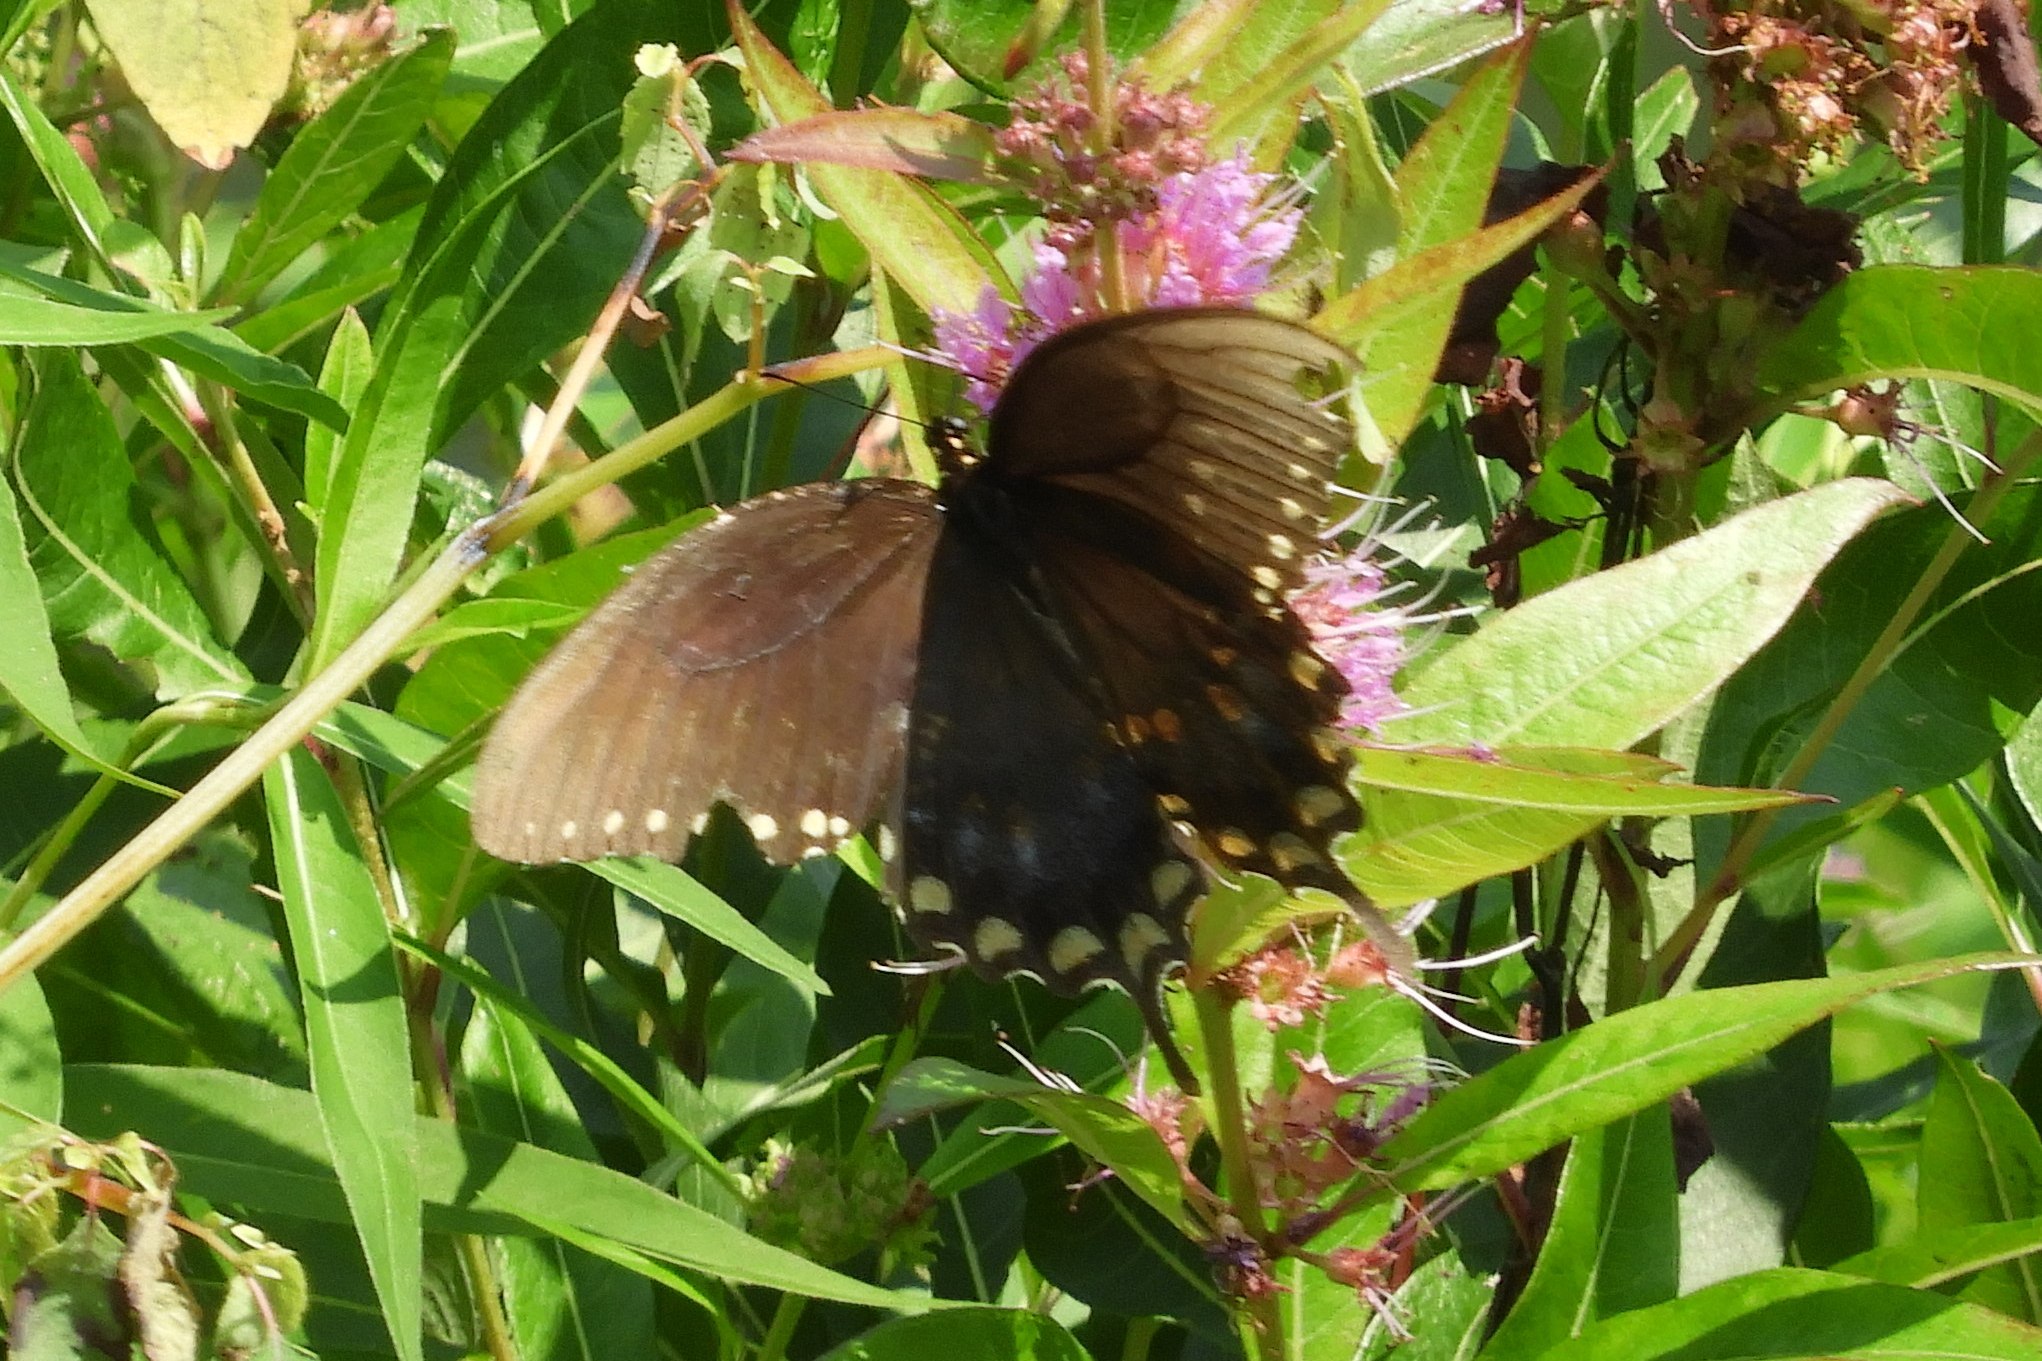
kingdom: Animalia
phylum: Arthropoda
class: Insecta
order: Lepidoptera
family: Papilionidae
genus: Papilio
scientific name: Papilio troilus
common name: Spicebush swallowtail
